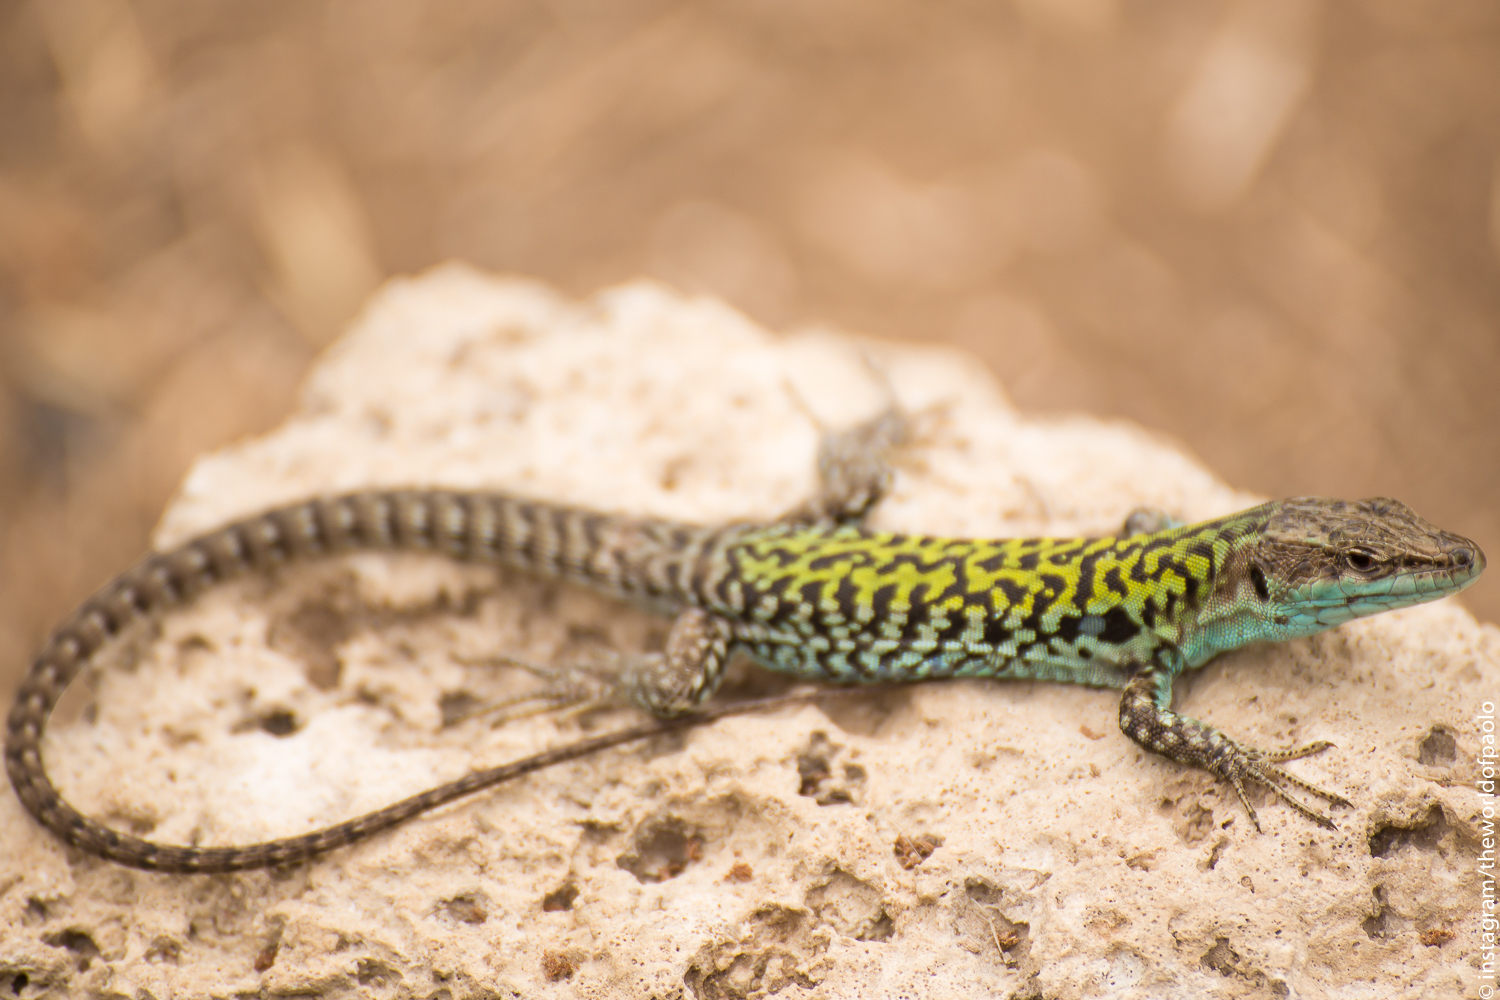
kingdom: Animalia
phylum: Chordata
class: Squamata
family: Lacertidae
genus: Podarcis
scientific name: Podarcis siculus
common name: Italian wall lizard
